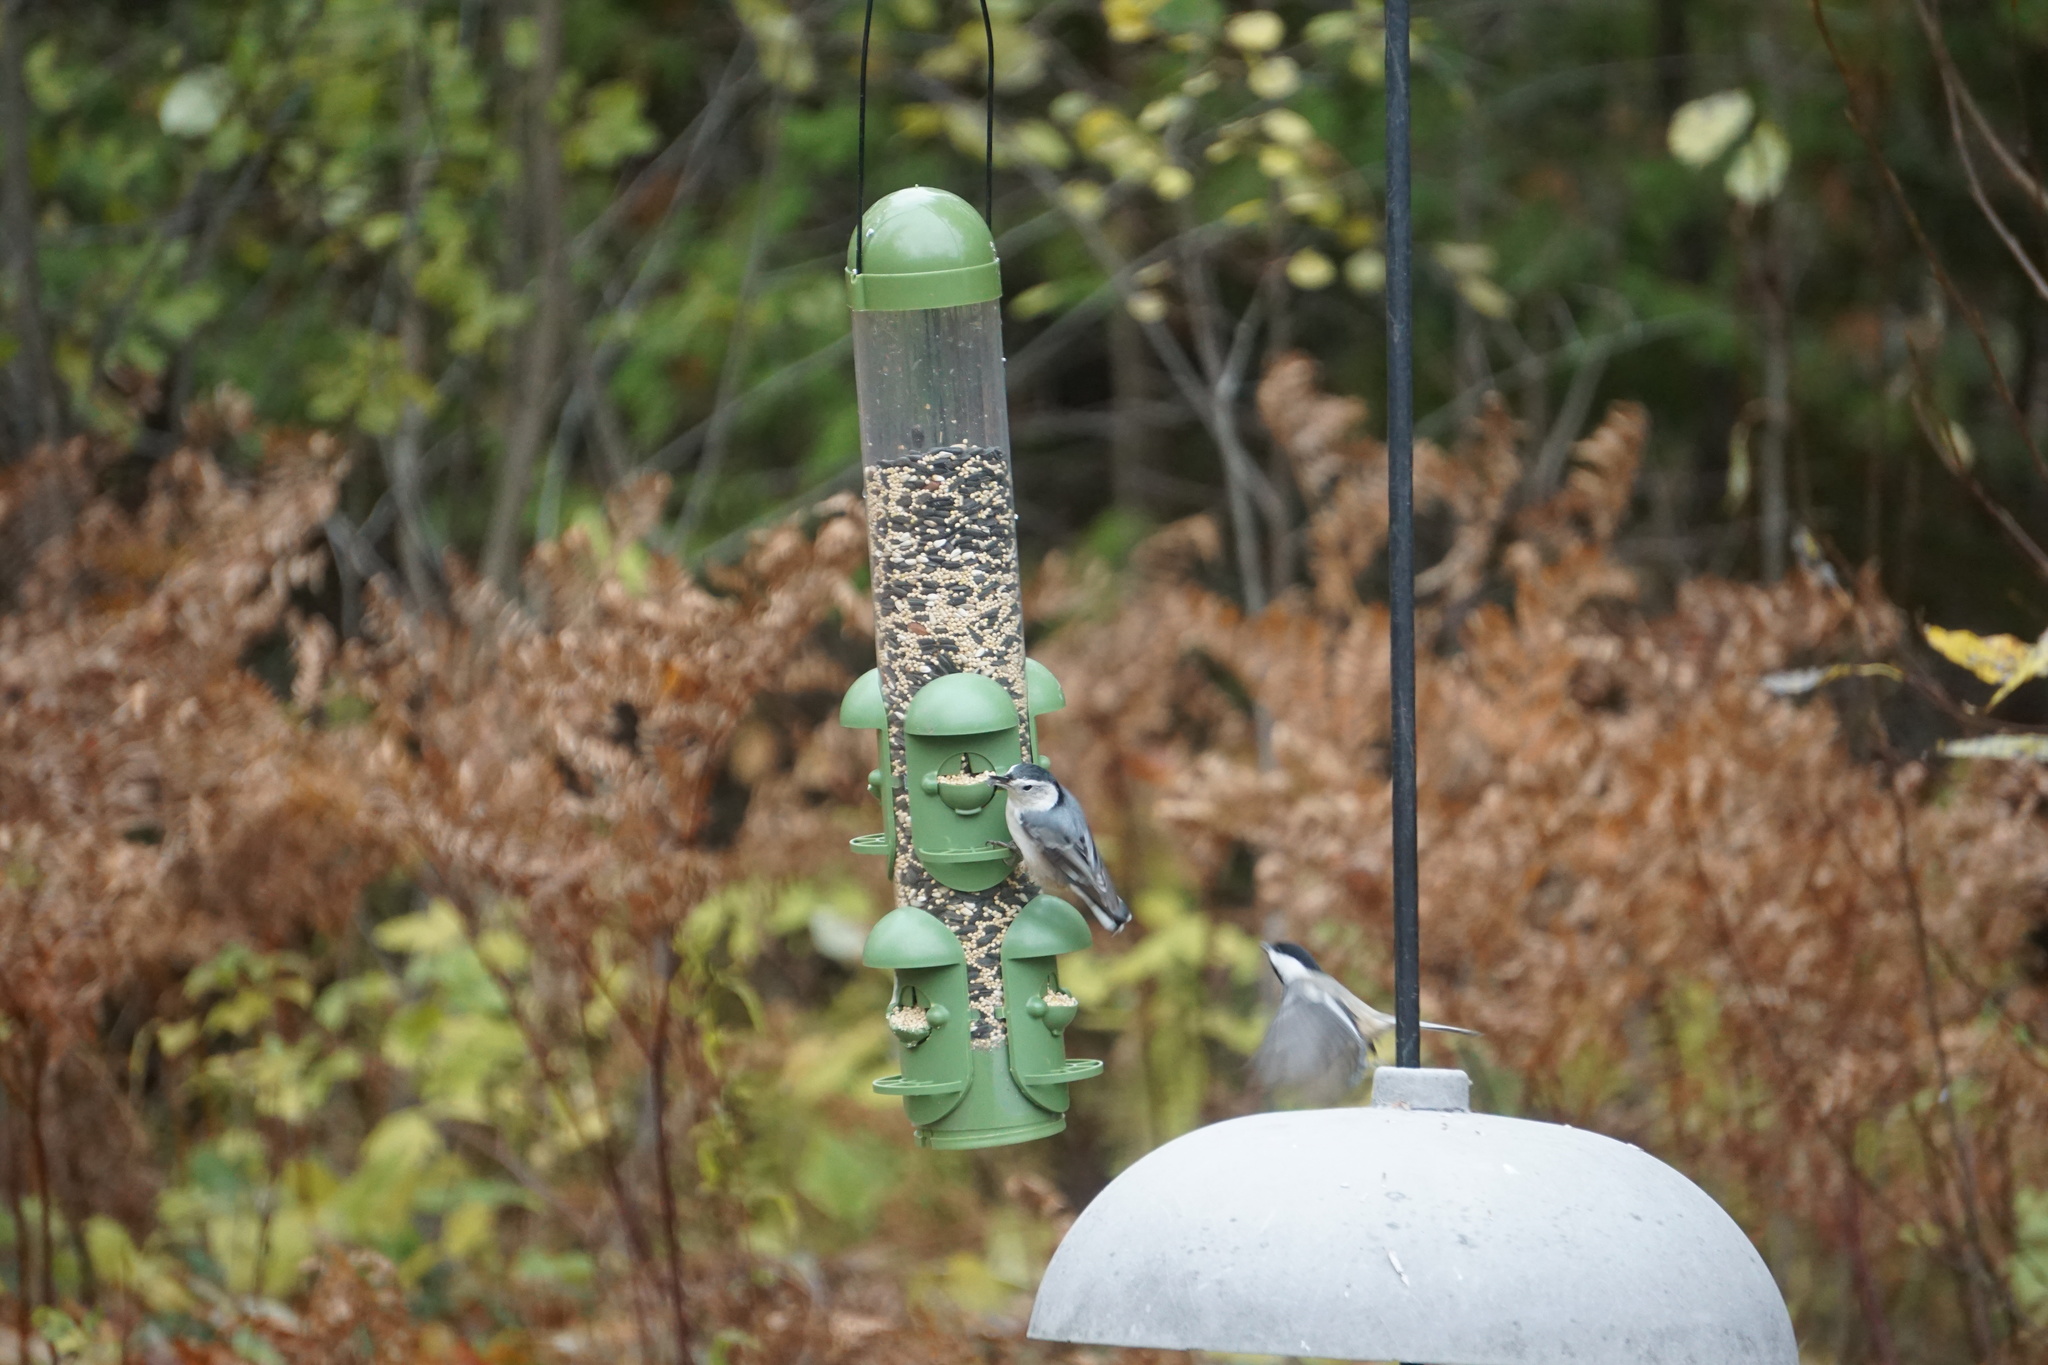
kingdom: Animalia
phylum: Chordata
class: Aves
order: Passeriformes
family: Sittidae
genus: Sitta
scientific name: Sitta carolinensis
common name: White-breasted nuthatch
